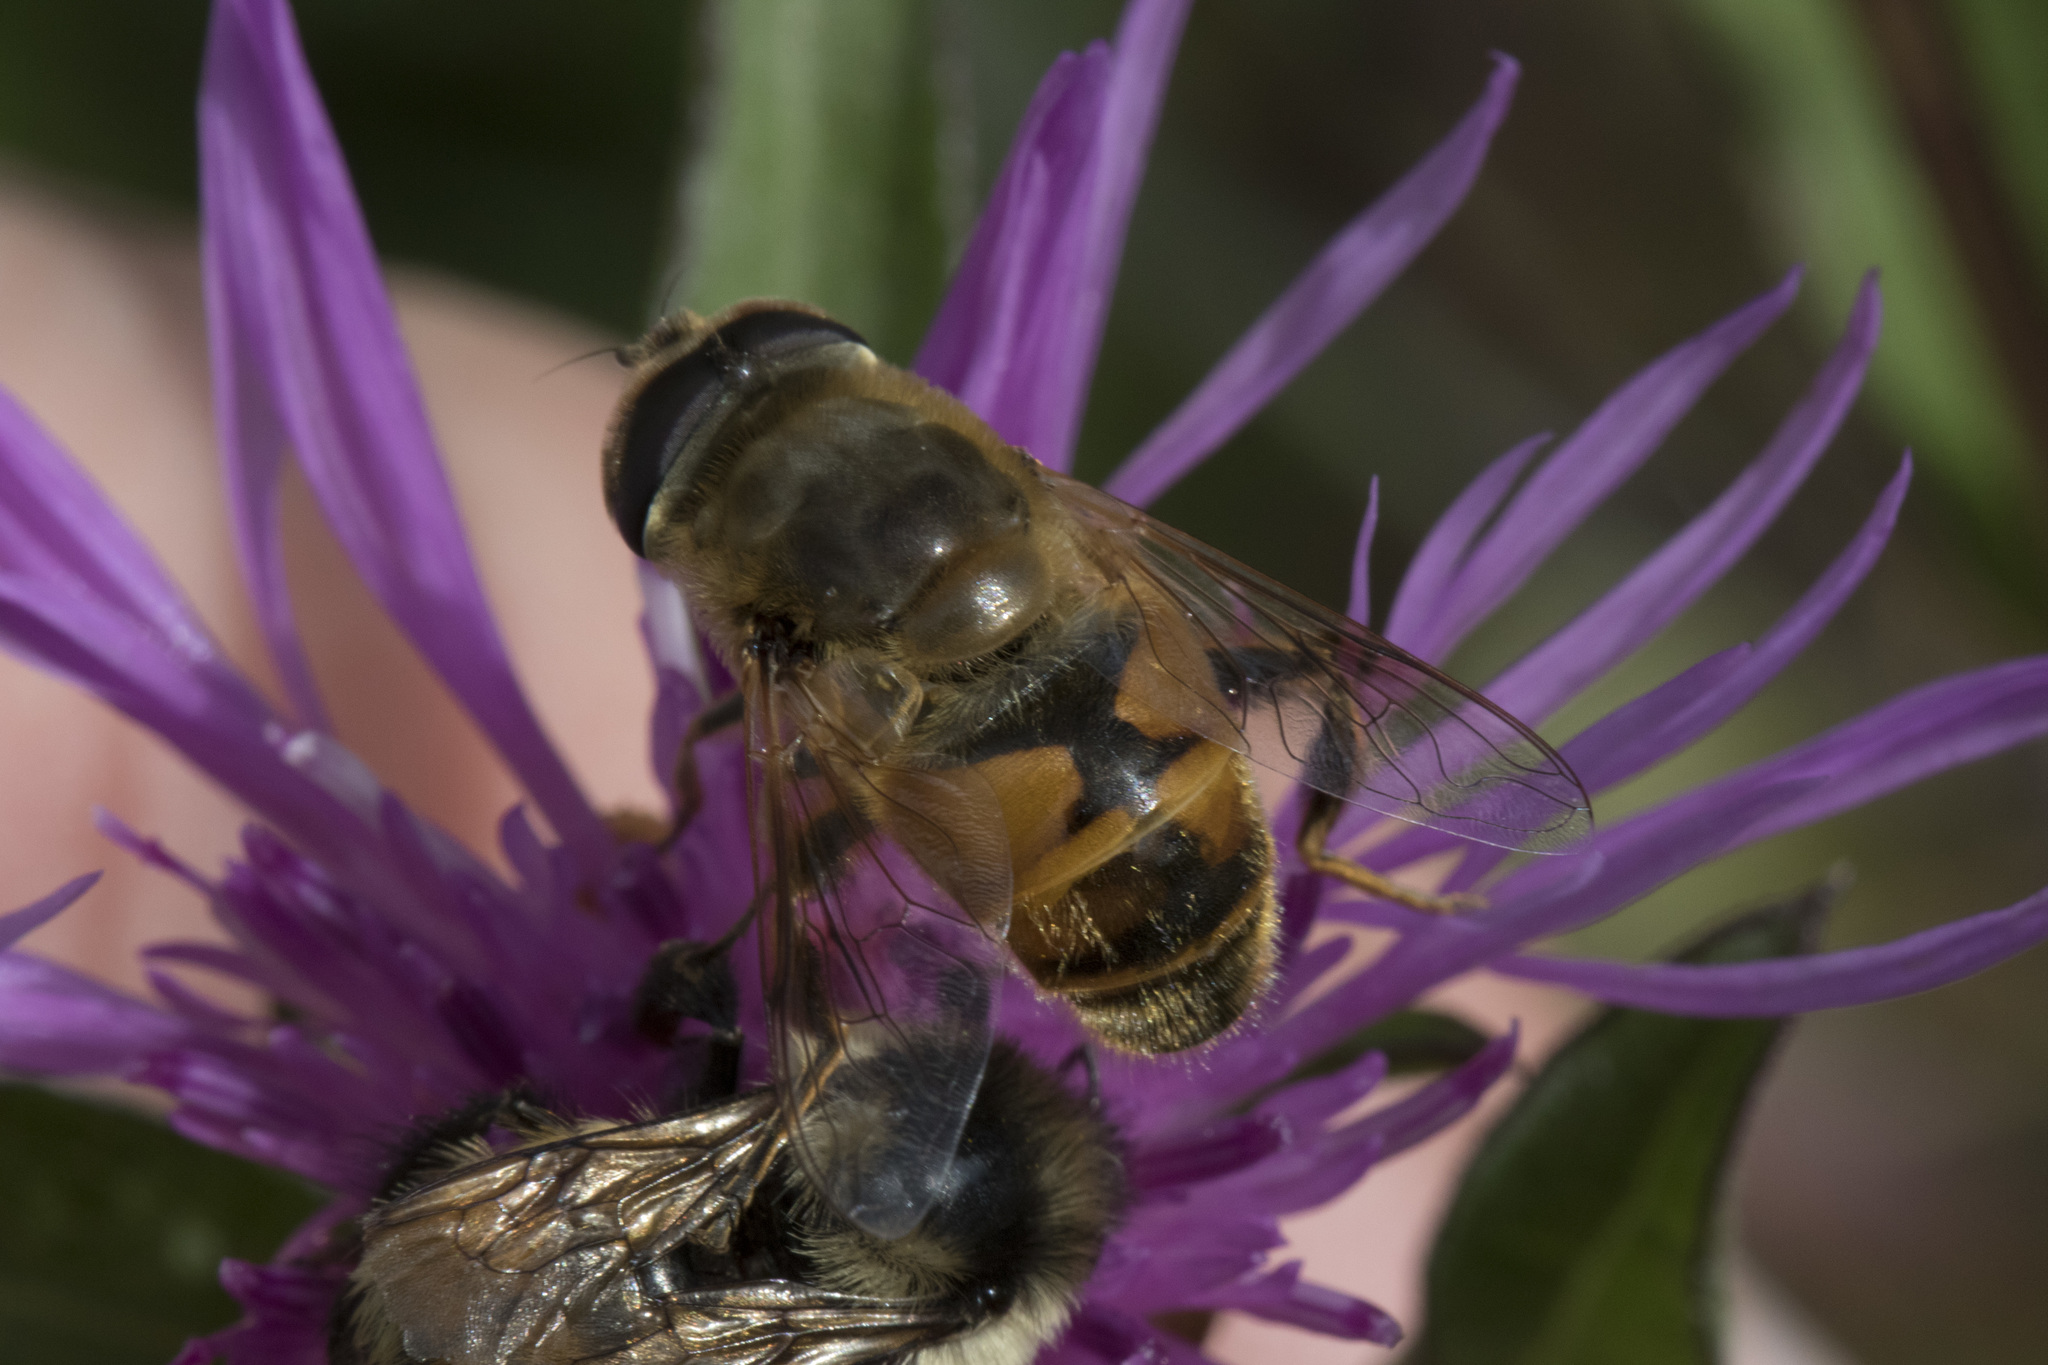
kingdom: Animalia
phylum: Arthropoda
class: Insecta
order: Diptera
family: Syrphidae
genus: Eristalis
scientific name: Eristalis tenax
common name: Drone fly
